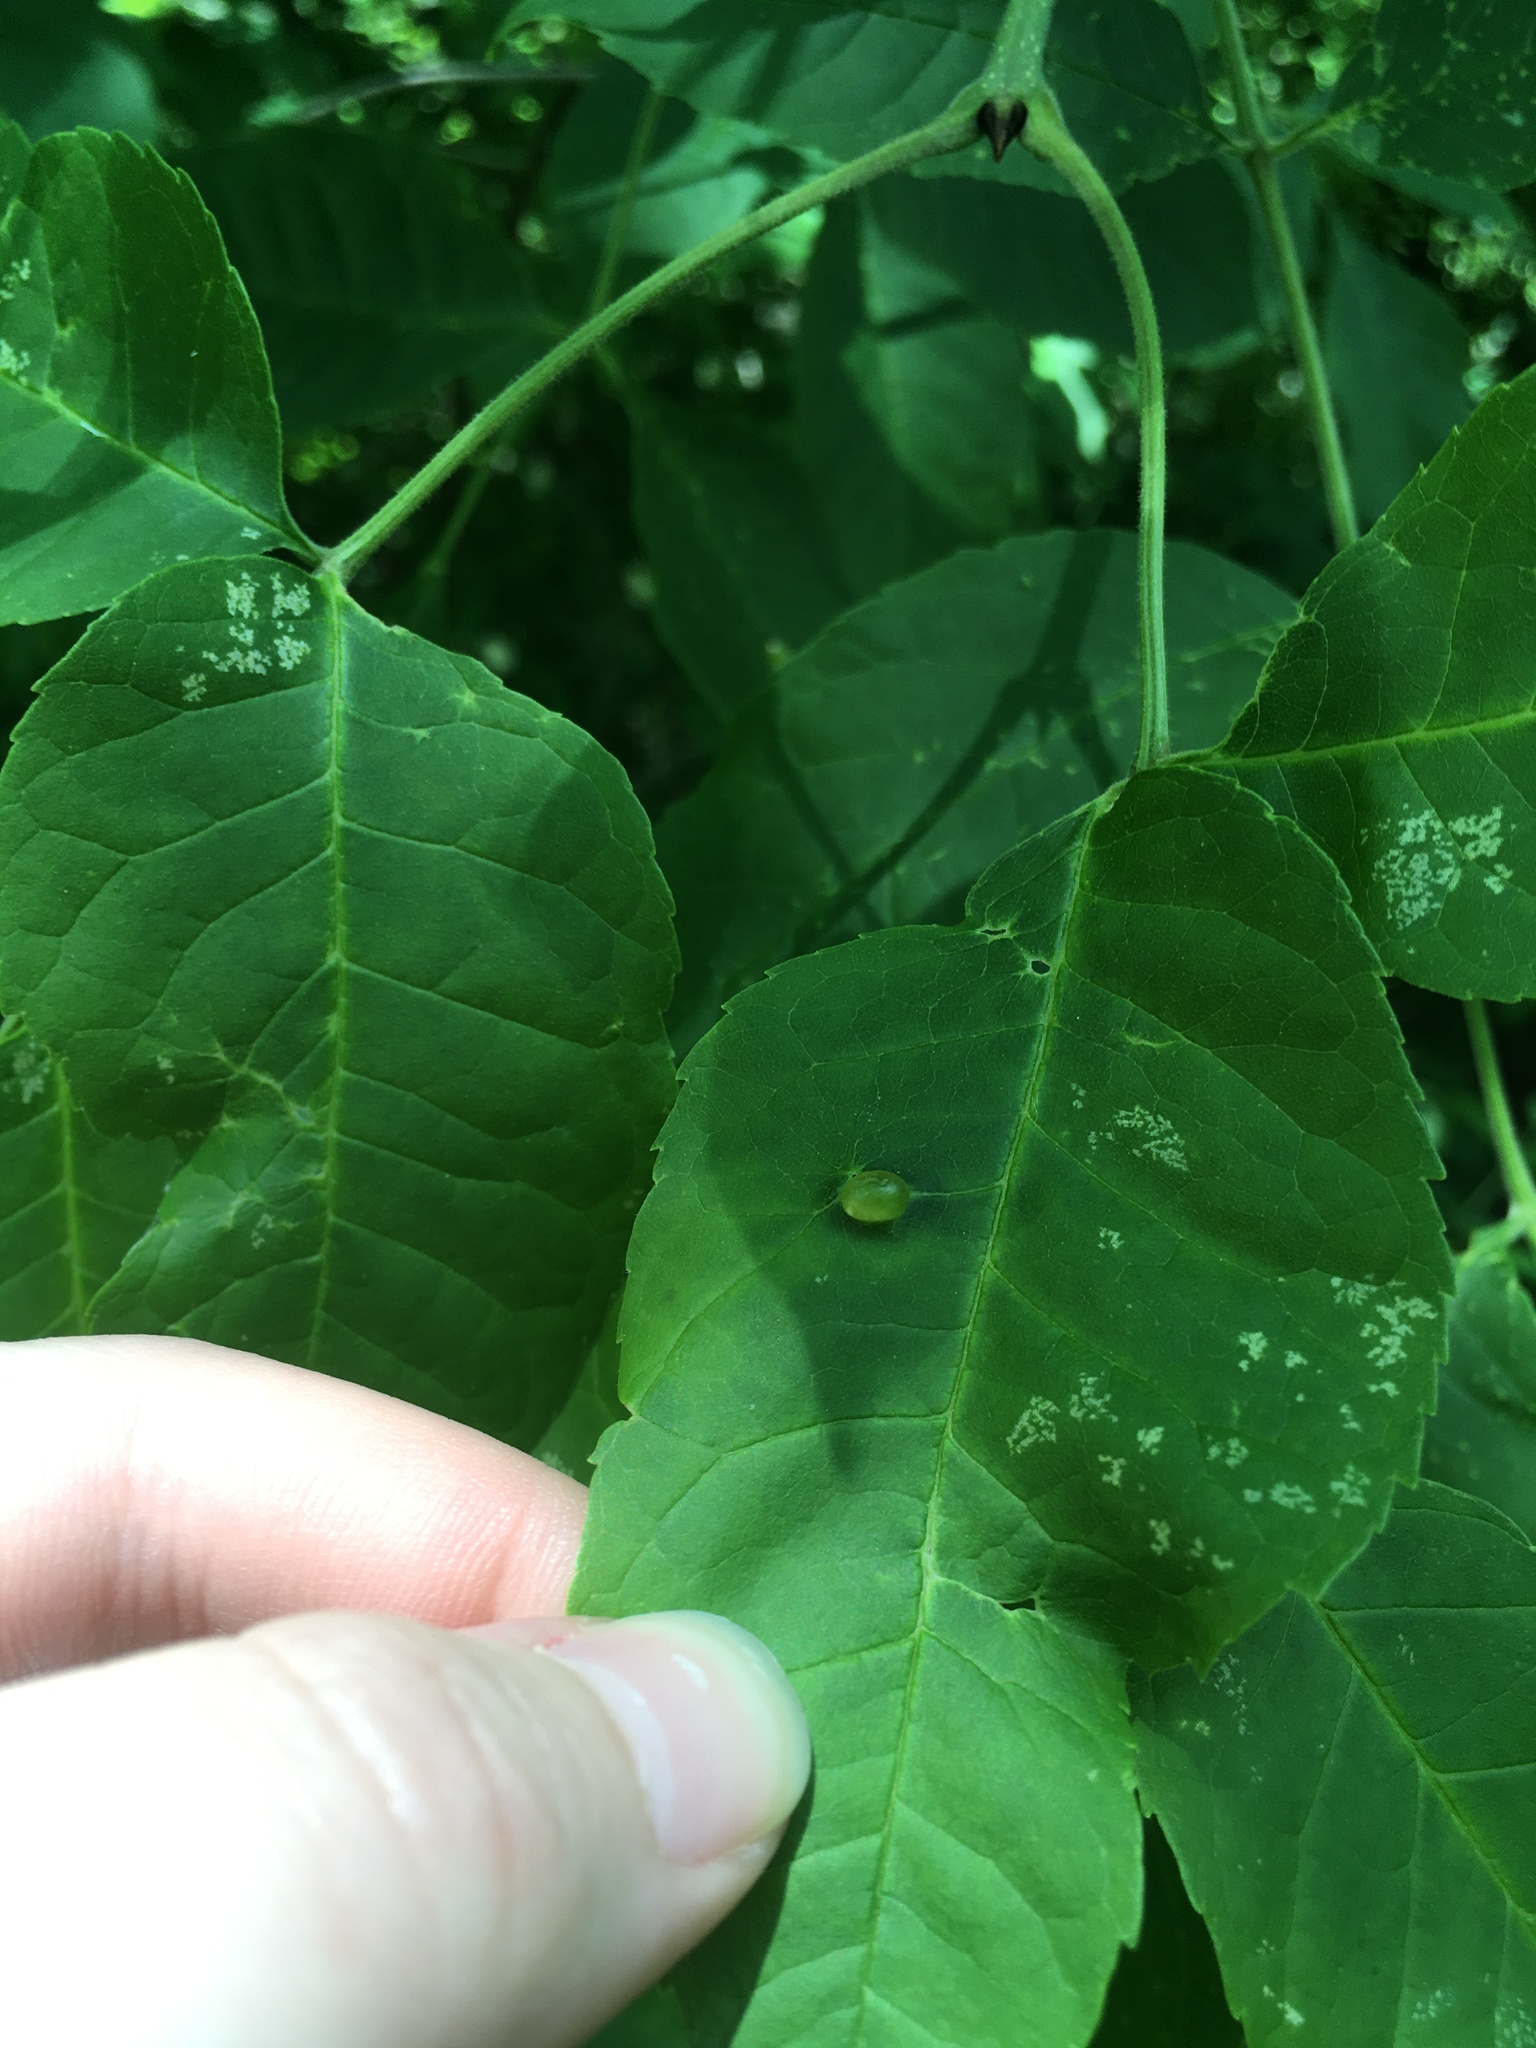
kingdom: Animalia
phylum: Arthropoda
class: Insecta
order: Diptera
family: Cecidomyiidae
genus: Dasineura
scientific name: Dasineura pellex
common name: Ash bullet gall midge
